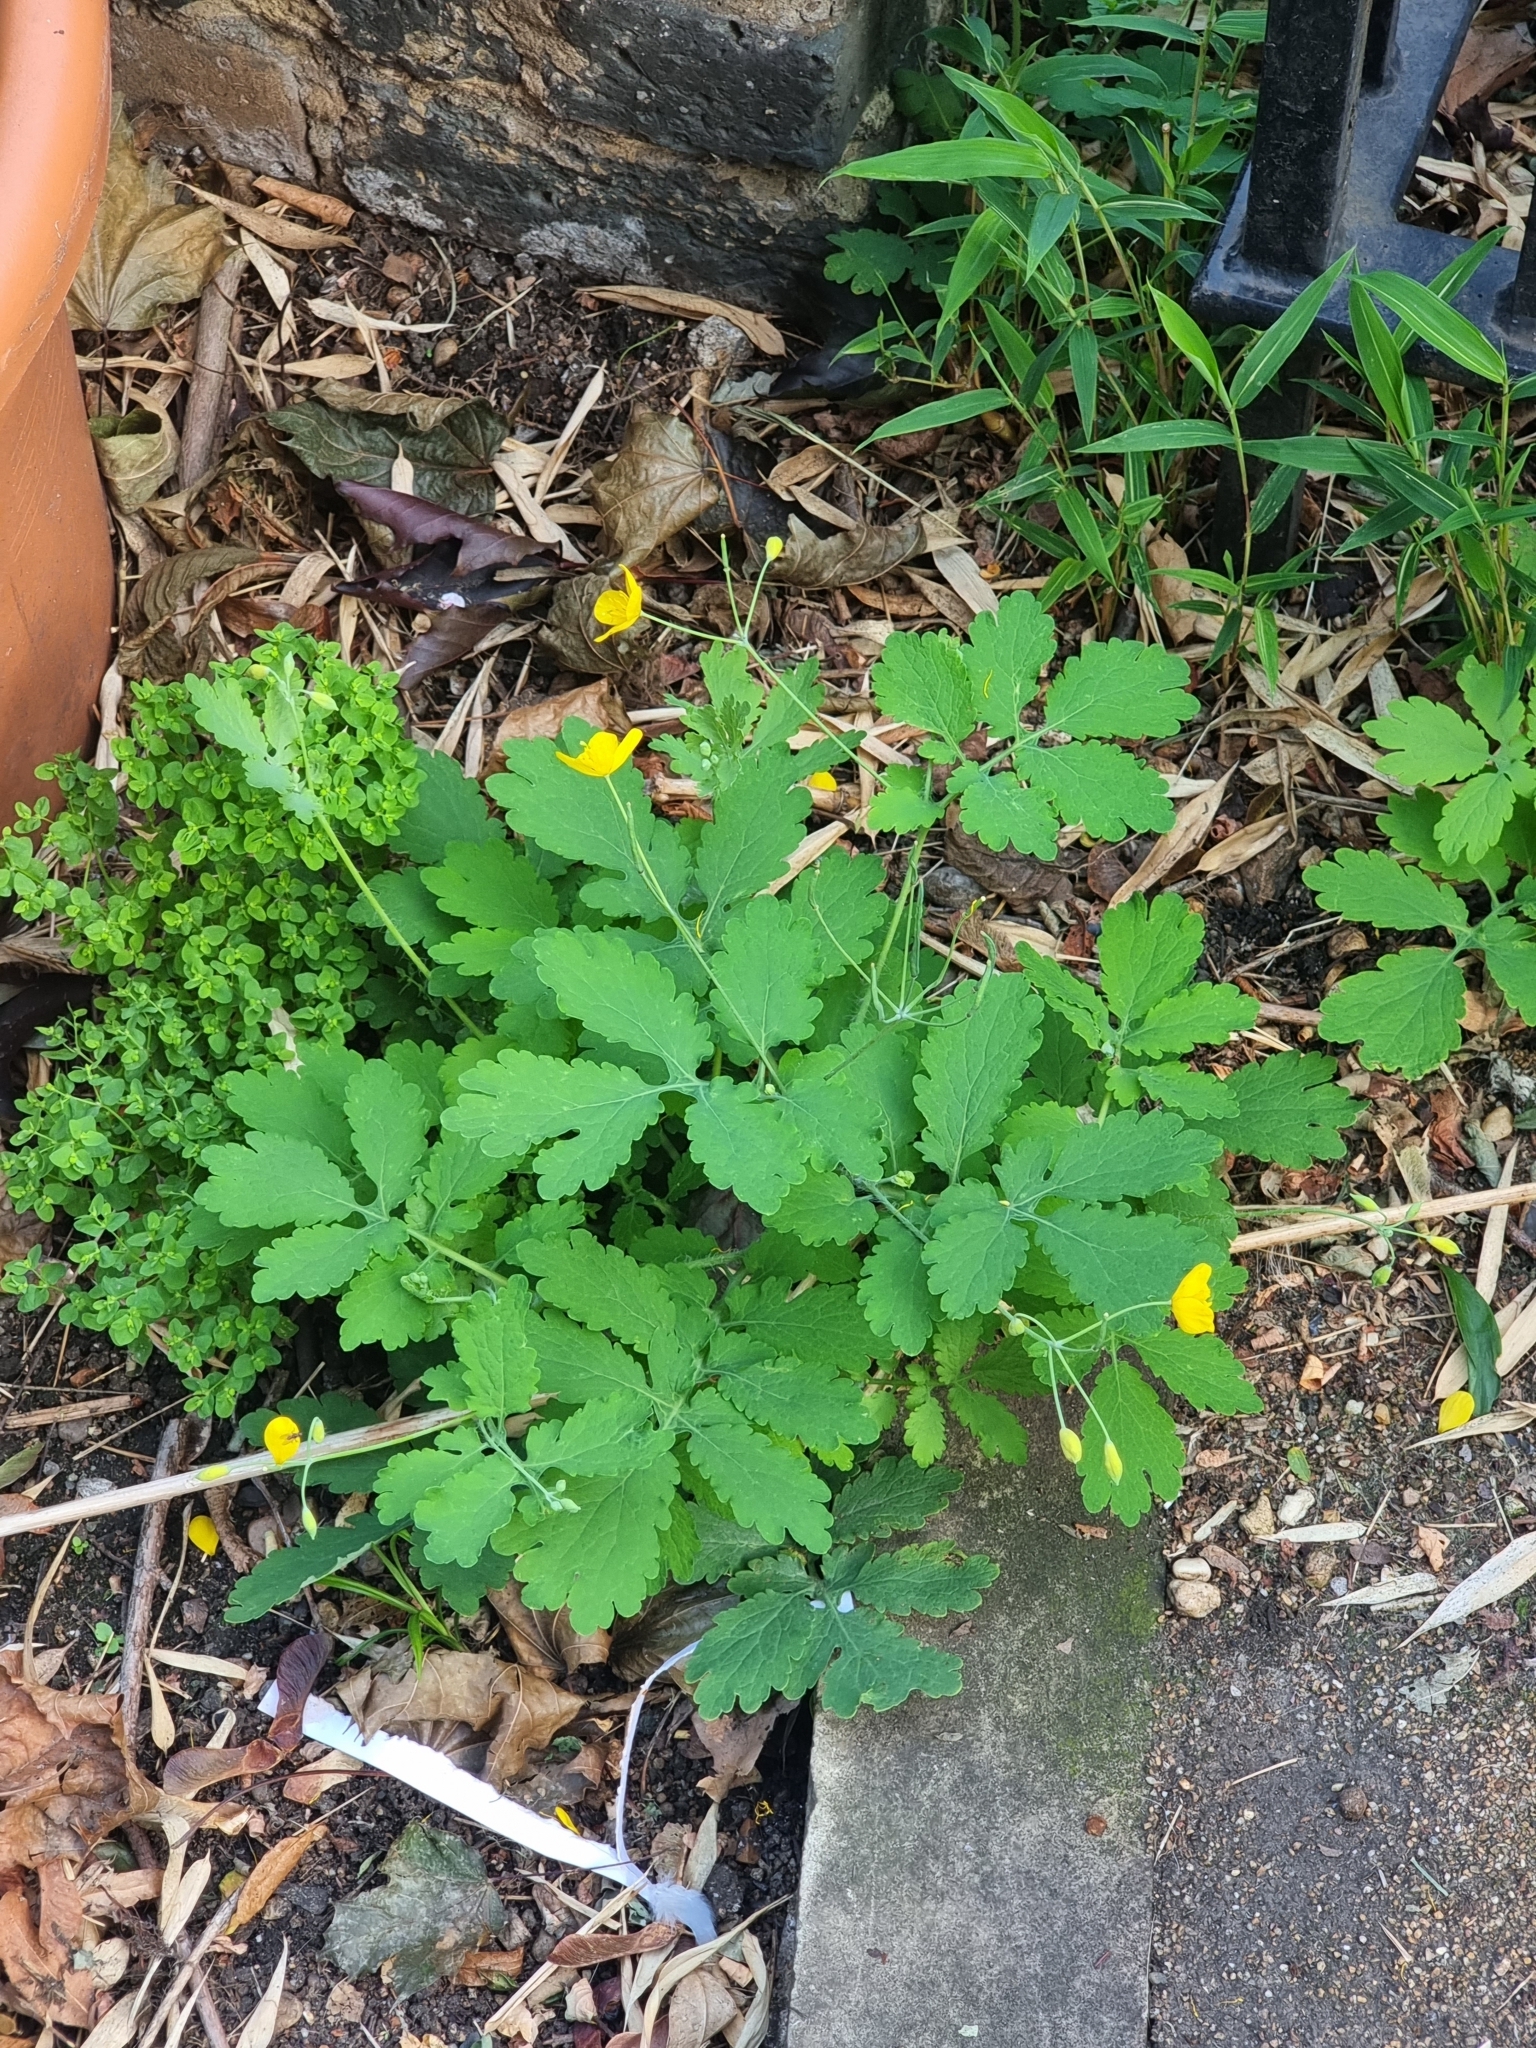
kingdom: Plantae
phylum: Tracheophyta
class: Magnoliopsida
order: Ranunculales
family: Papaveraceae
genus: Chelidonium
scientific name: Chelidonium majus
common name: Greater celandine
